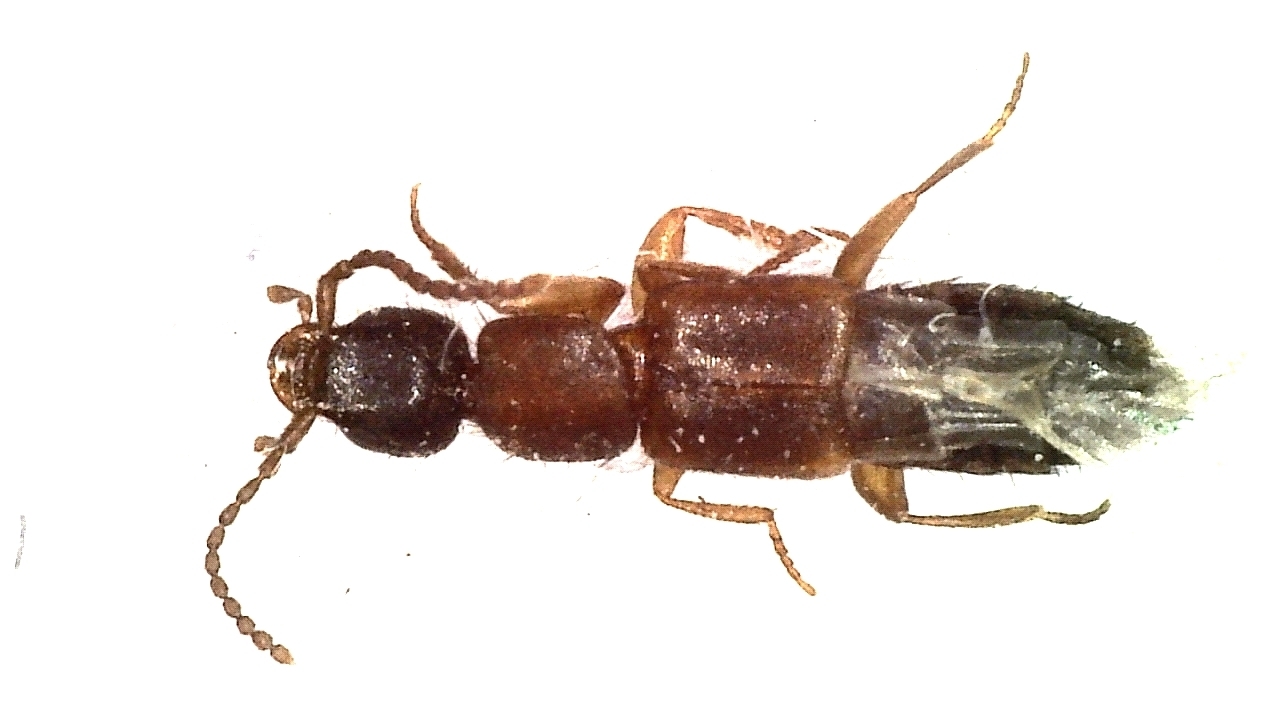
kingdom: Animalia
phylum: Arthropoda
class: Insecta
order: Coleoptera
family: Staphylinidae
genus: Lithocharis
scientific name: Lithocharis nigriceps
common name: Staphylinid beetle
